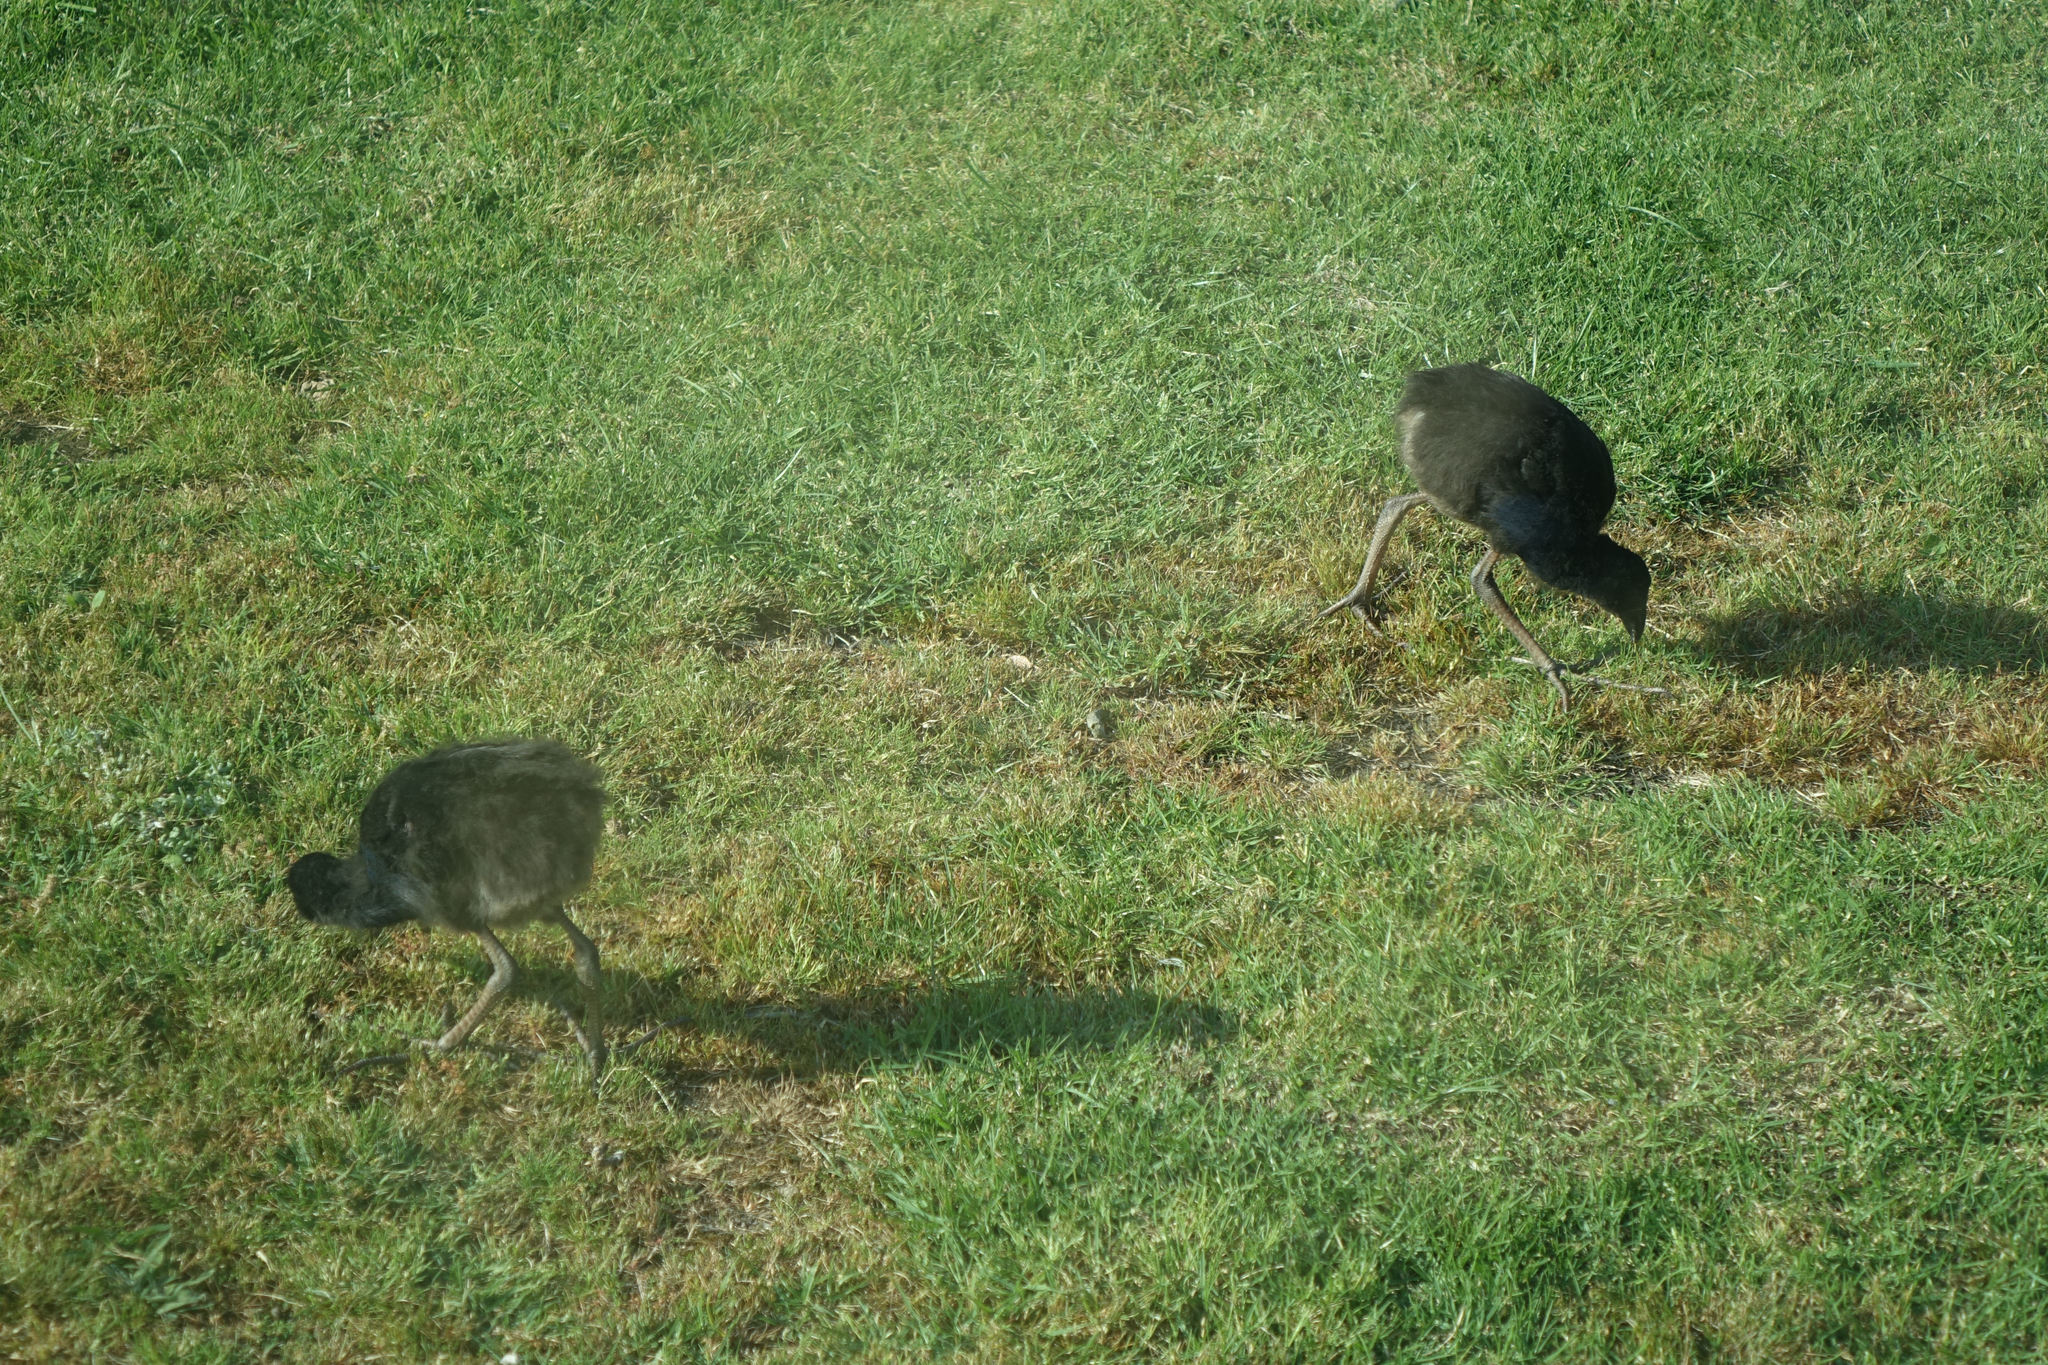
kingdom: Animalia
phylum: Chordata
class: Aves
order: Gruiformes
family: Rallidae
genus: Porphyrio
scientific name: Porphyrio melanotus
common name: Australasian swamphen
